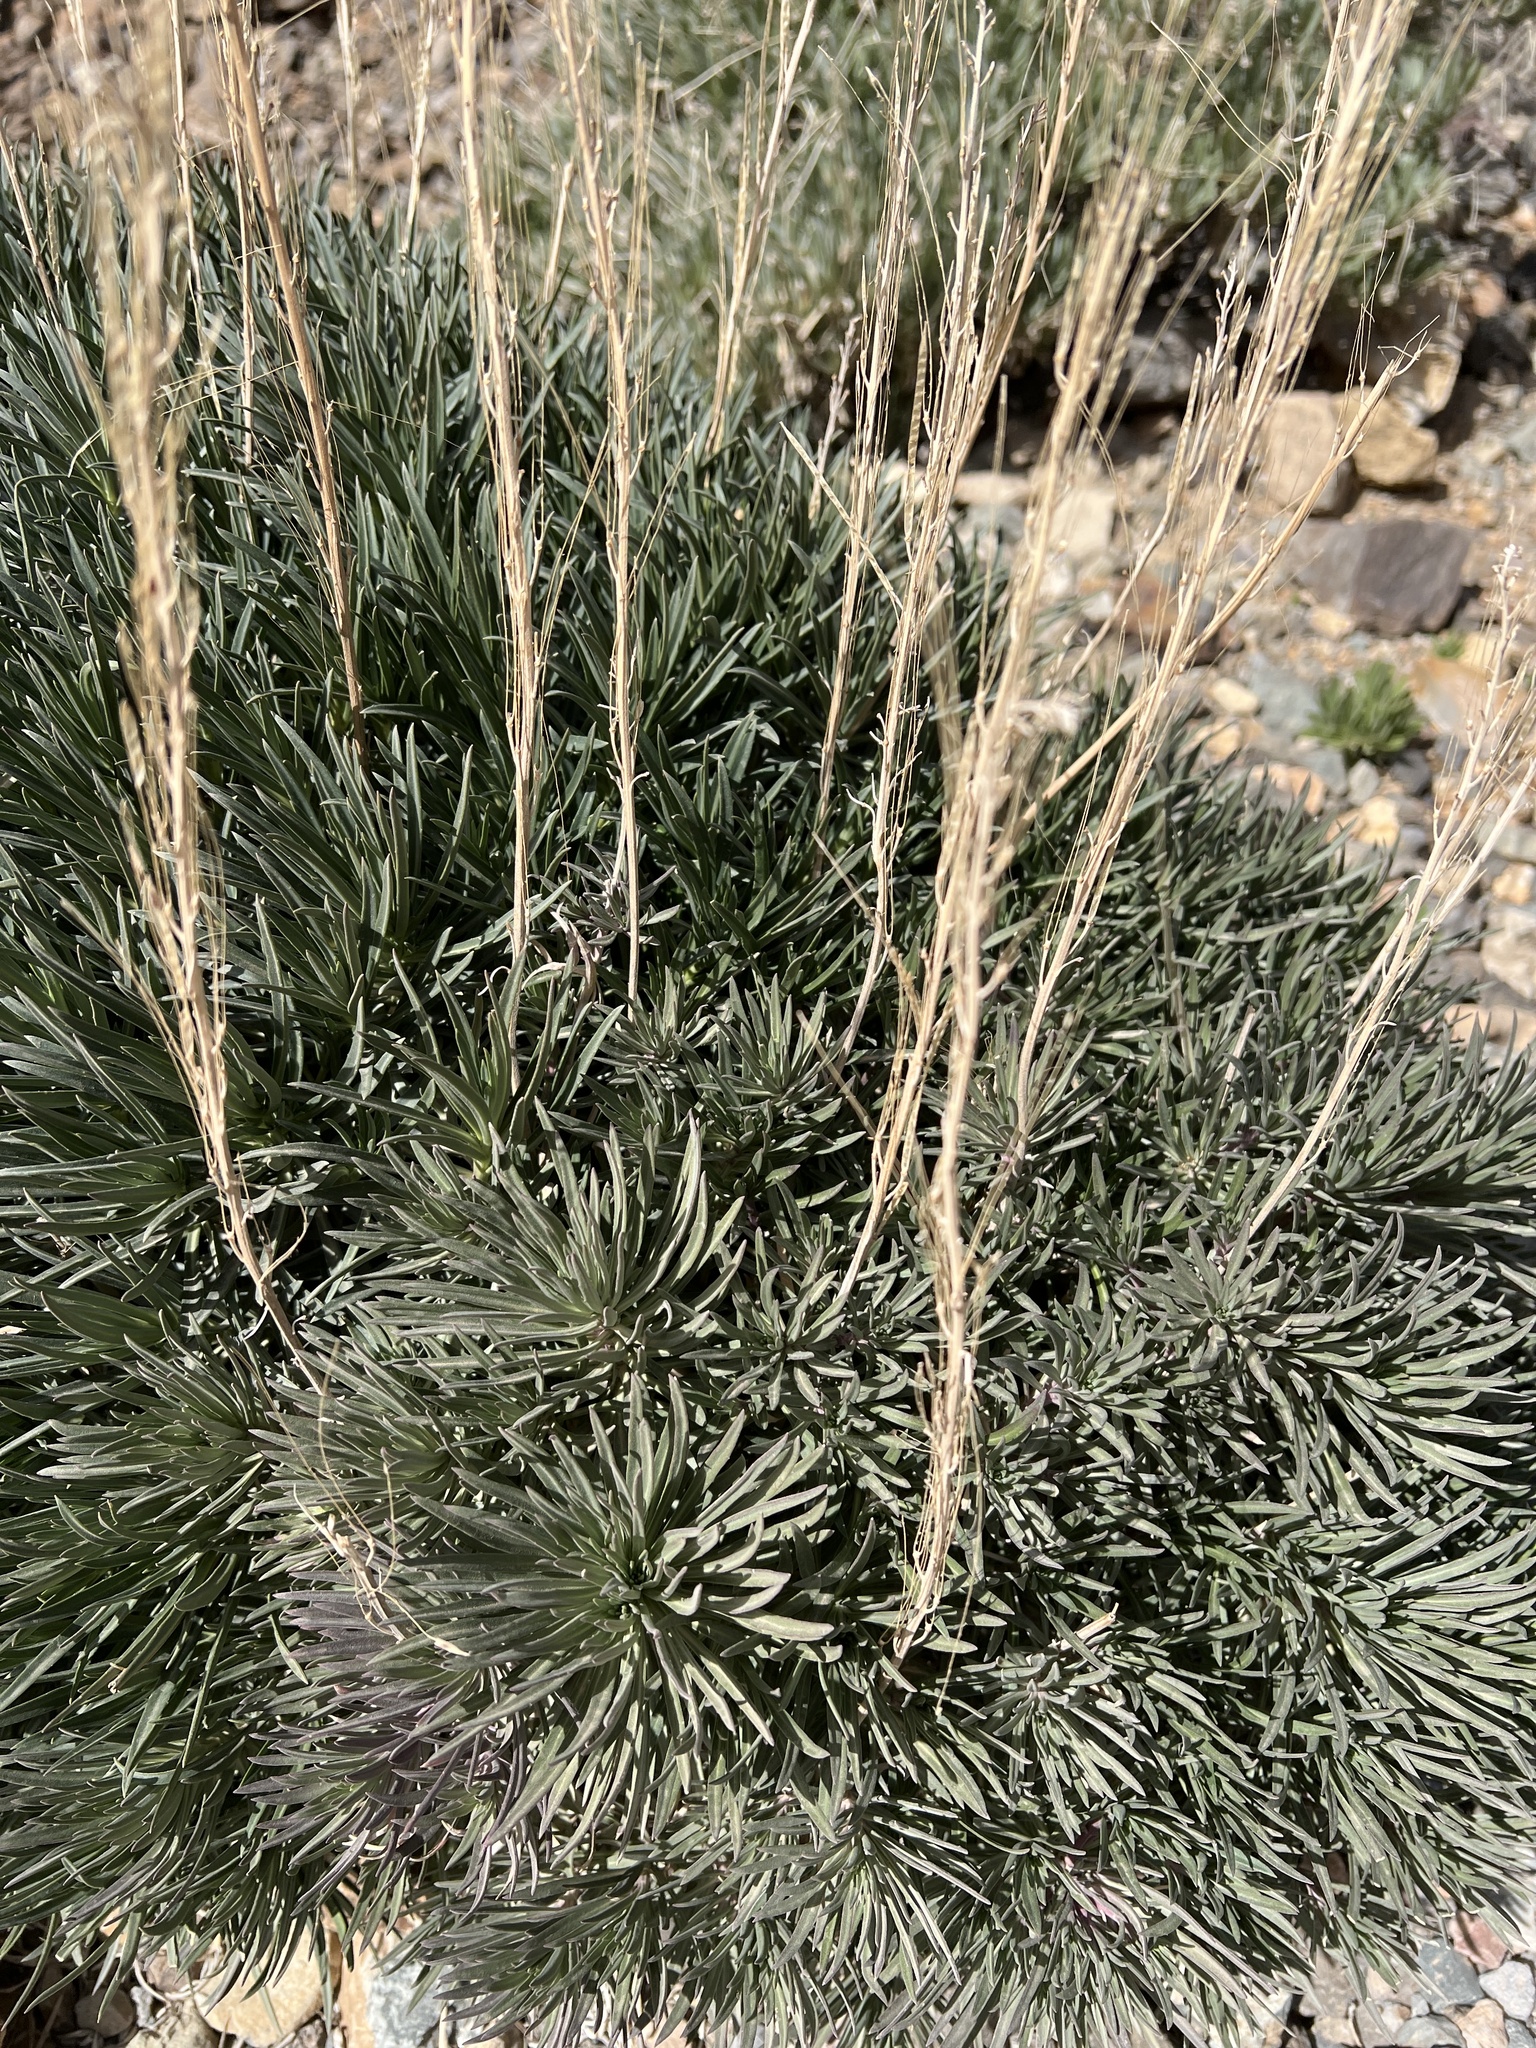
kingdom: Plantae
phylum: Tracheophyta
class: Magnoliopsida
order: Brassicales
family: Brassicaceae
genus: Erysimum
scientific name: Erysimum scoparium
